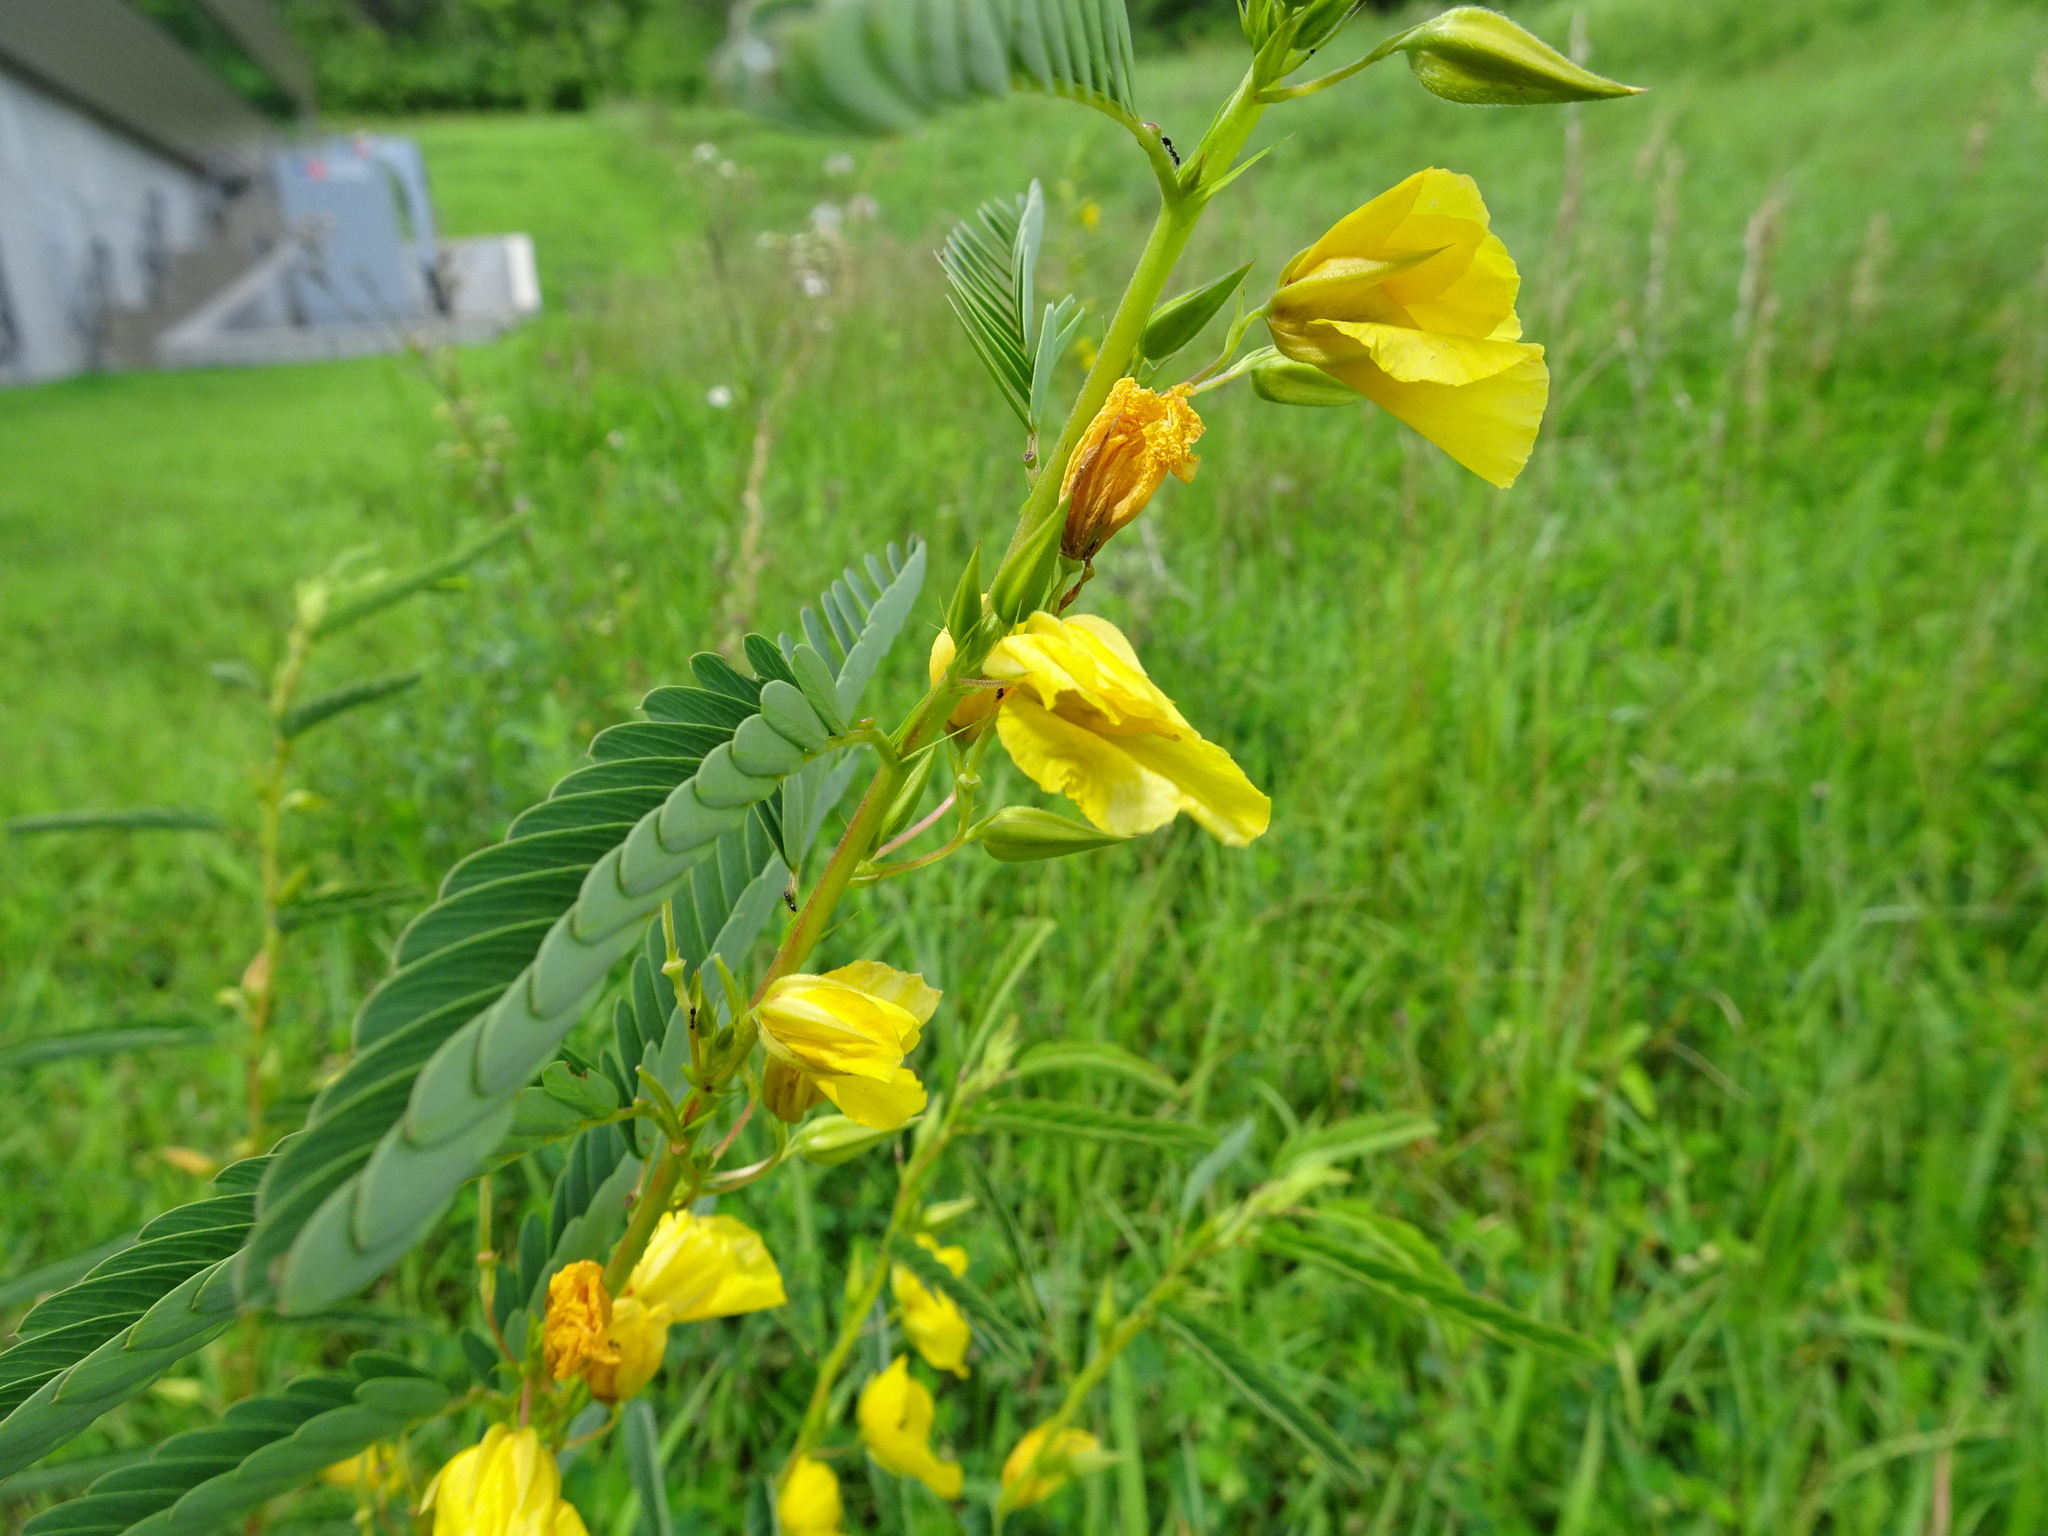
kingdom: Plantae
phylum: Tracheophyta
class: Magnoliopsida
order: Fabales
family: Fabaceae
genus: Chamaecrista
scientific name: Chamaecrista fasciculata
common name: Golden cassia
